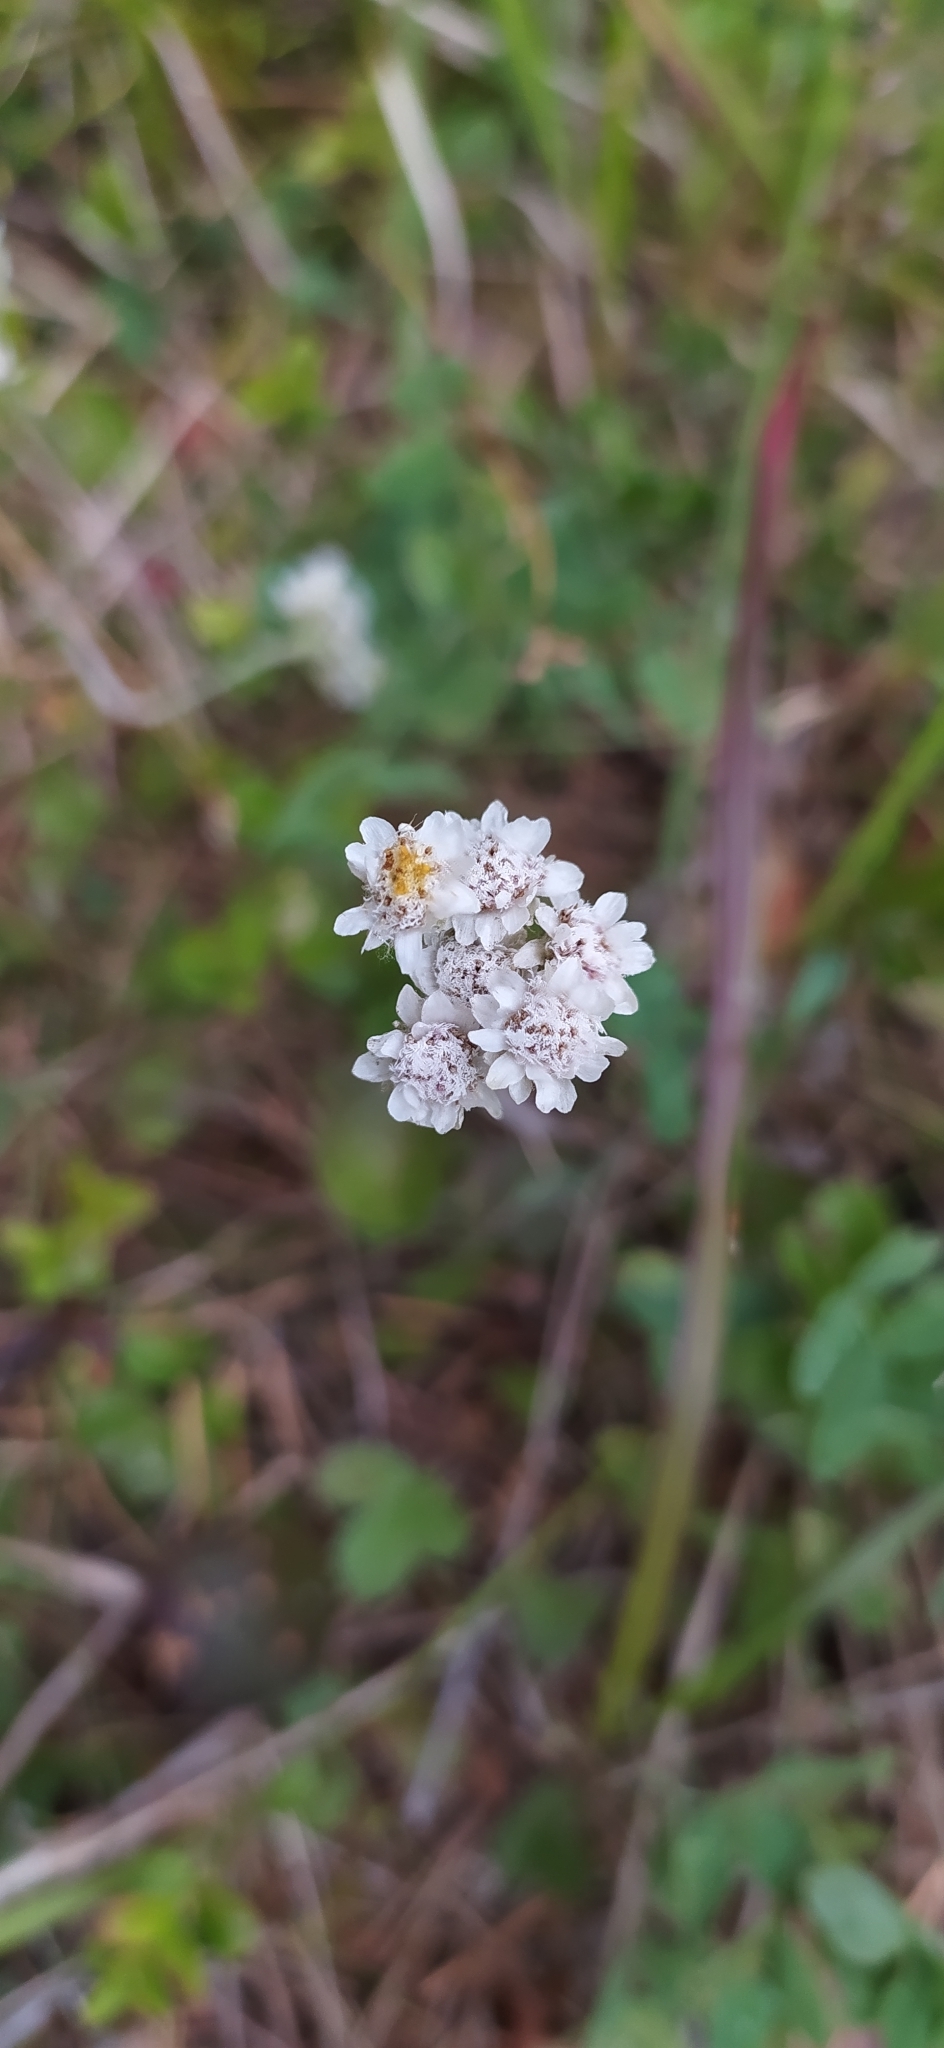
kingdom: Plantae
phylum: Tracheophyta
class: Magnoliopsida
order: Asterales
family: Asteraceae
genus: Antennaria
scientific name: Antennaria dioica
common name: Mountain everlasting
